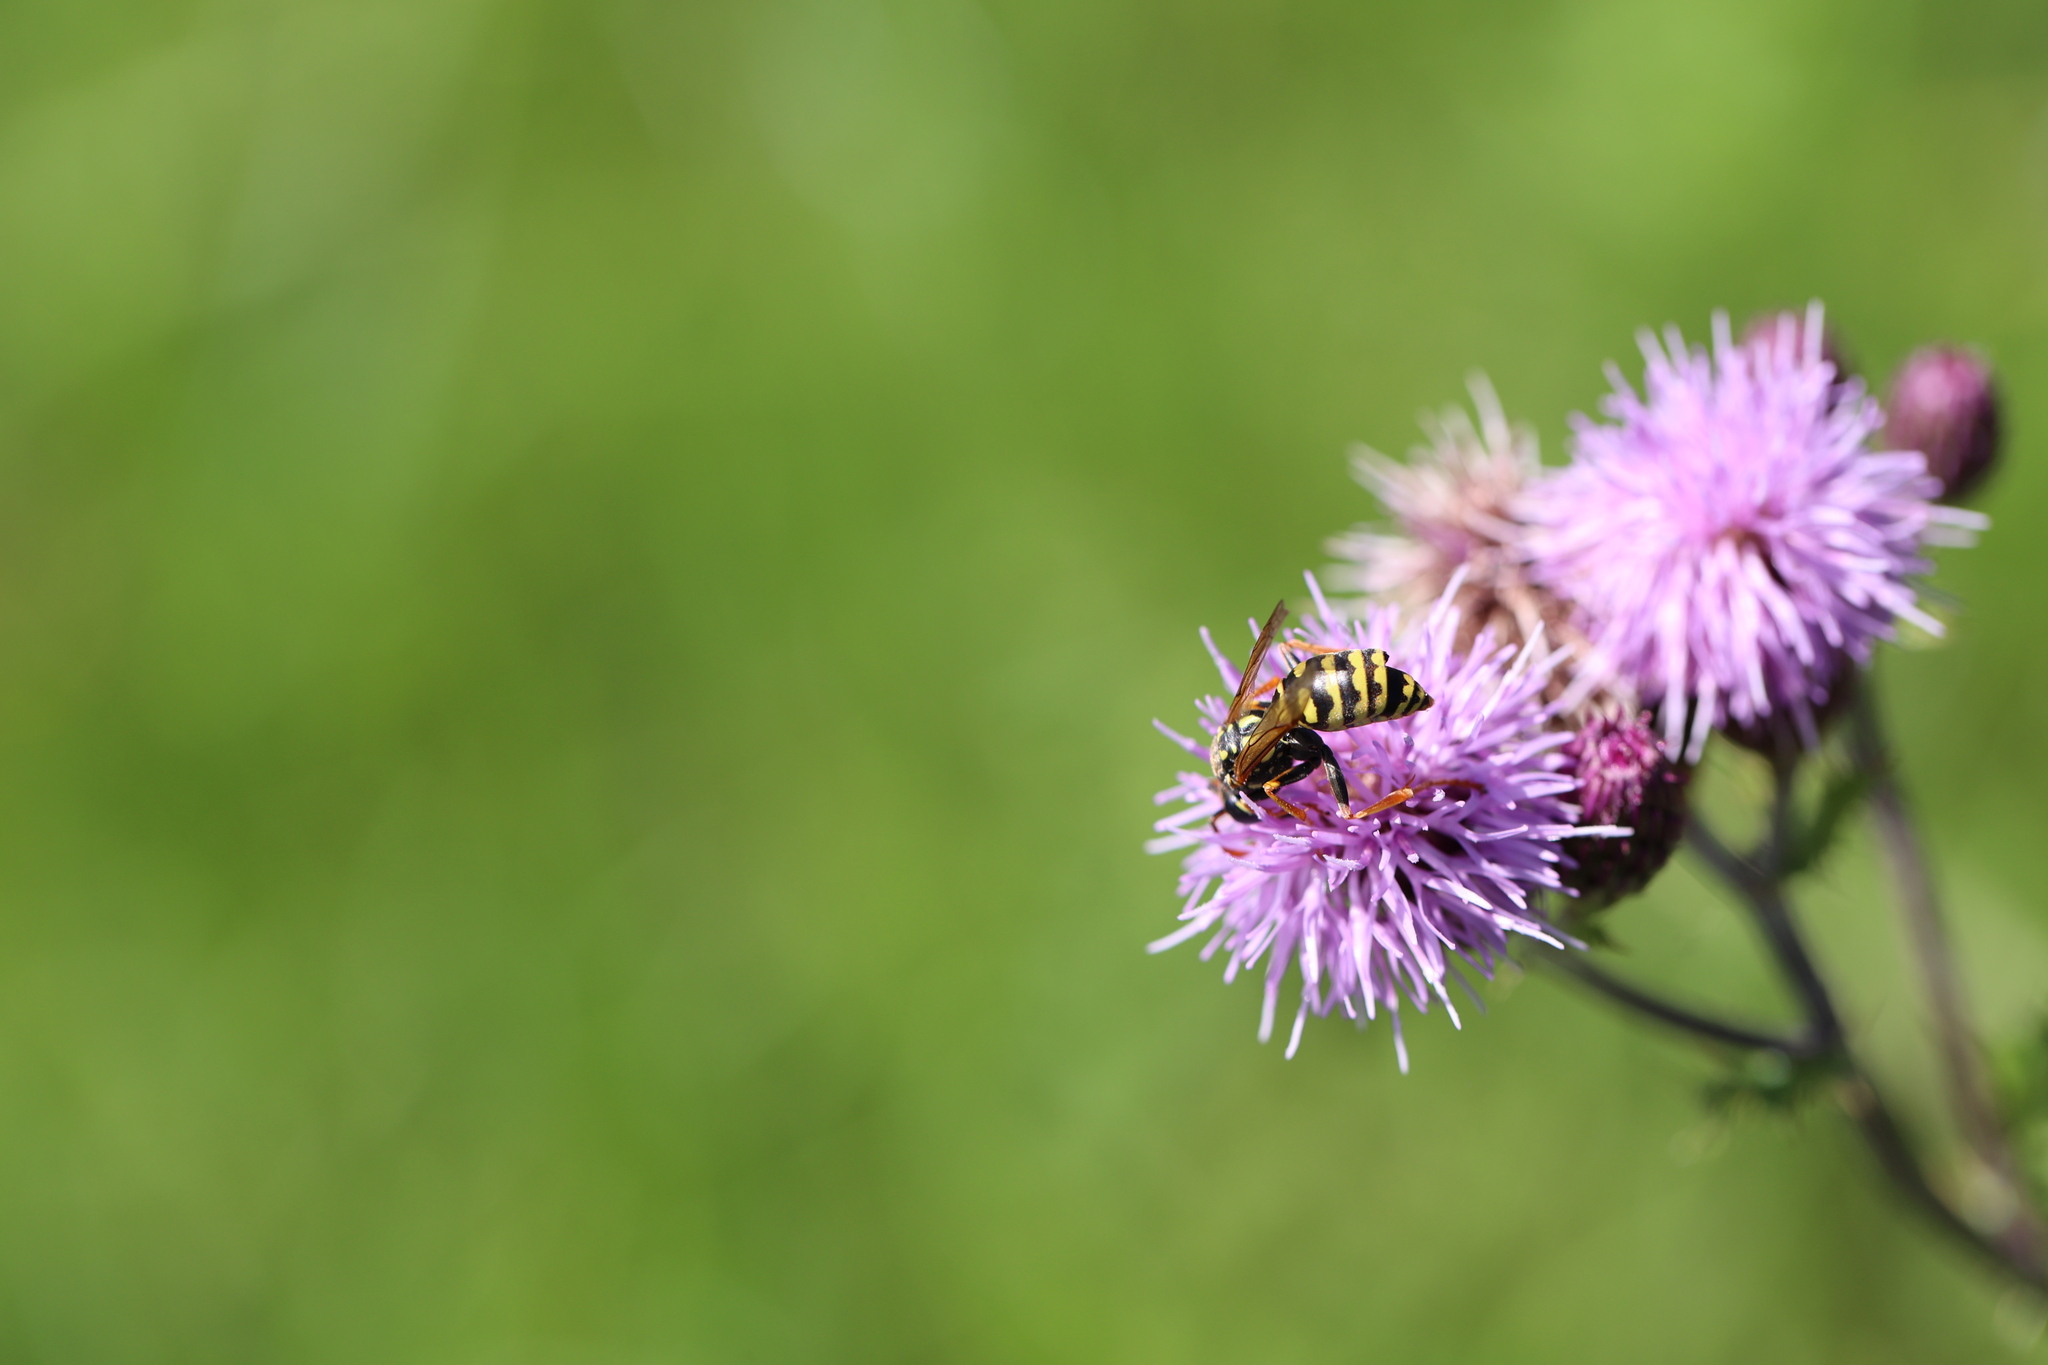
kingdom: Animalia
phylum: Arthropoda
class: Insecta
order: Hymenoptera
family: Eumenidae
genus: Polistes
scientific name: Polistes dominula
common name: Paper wasp
